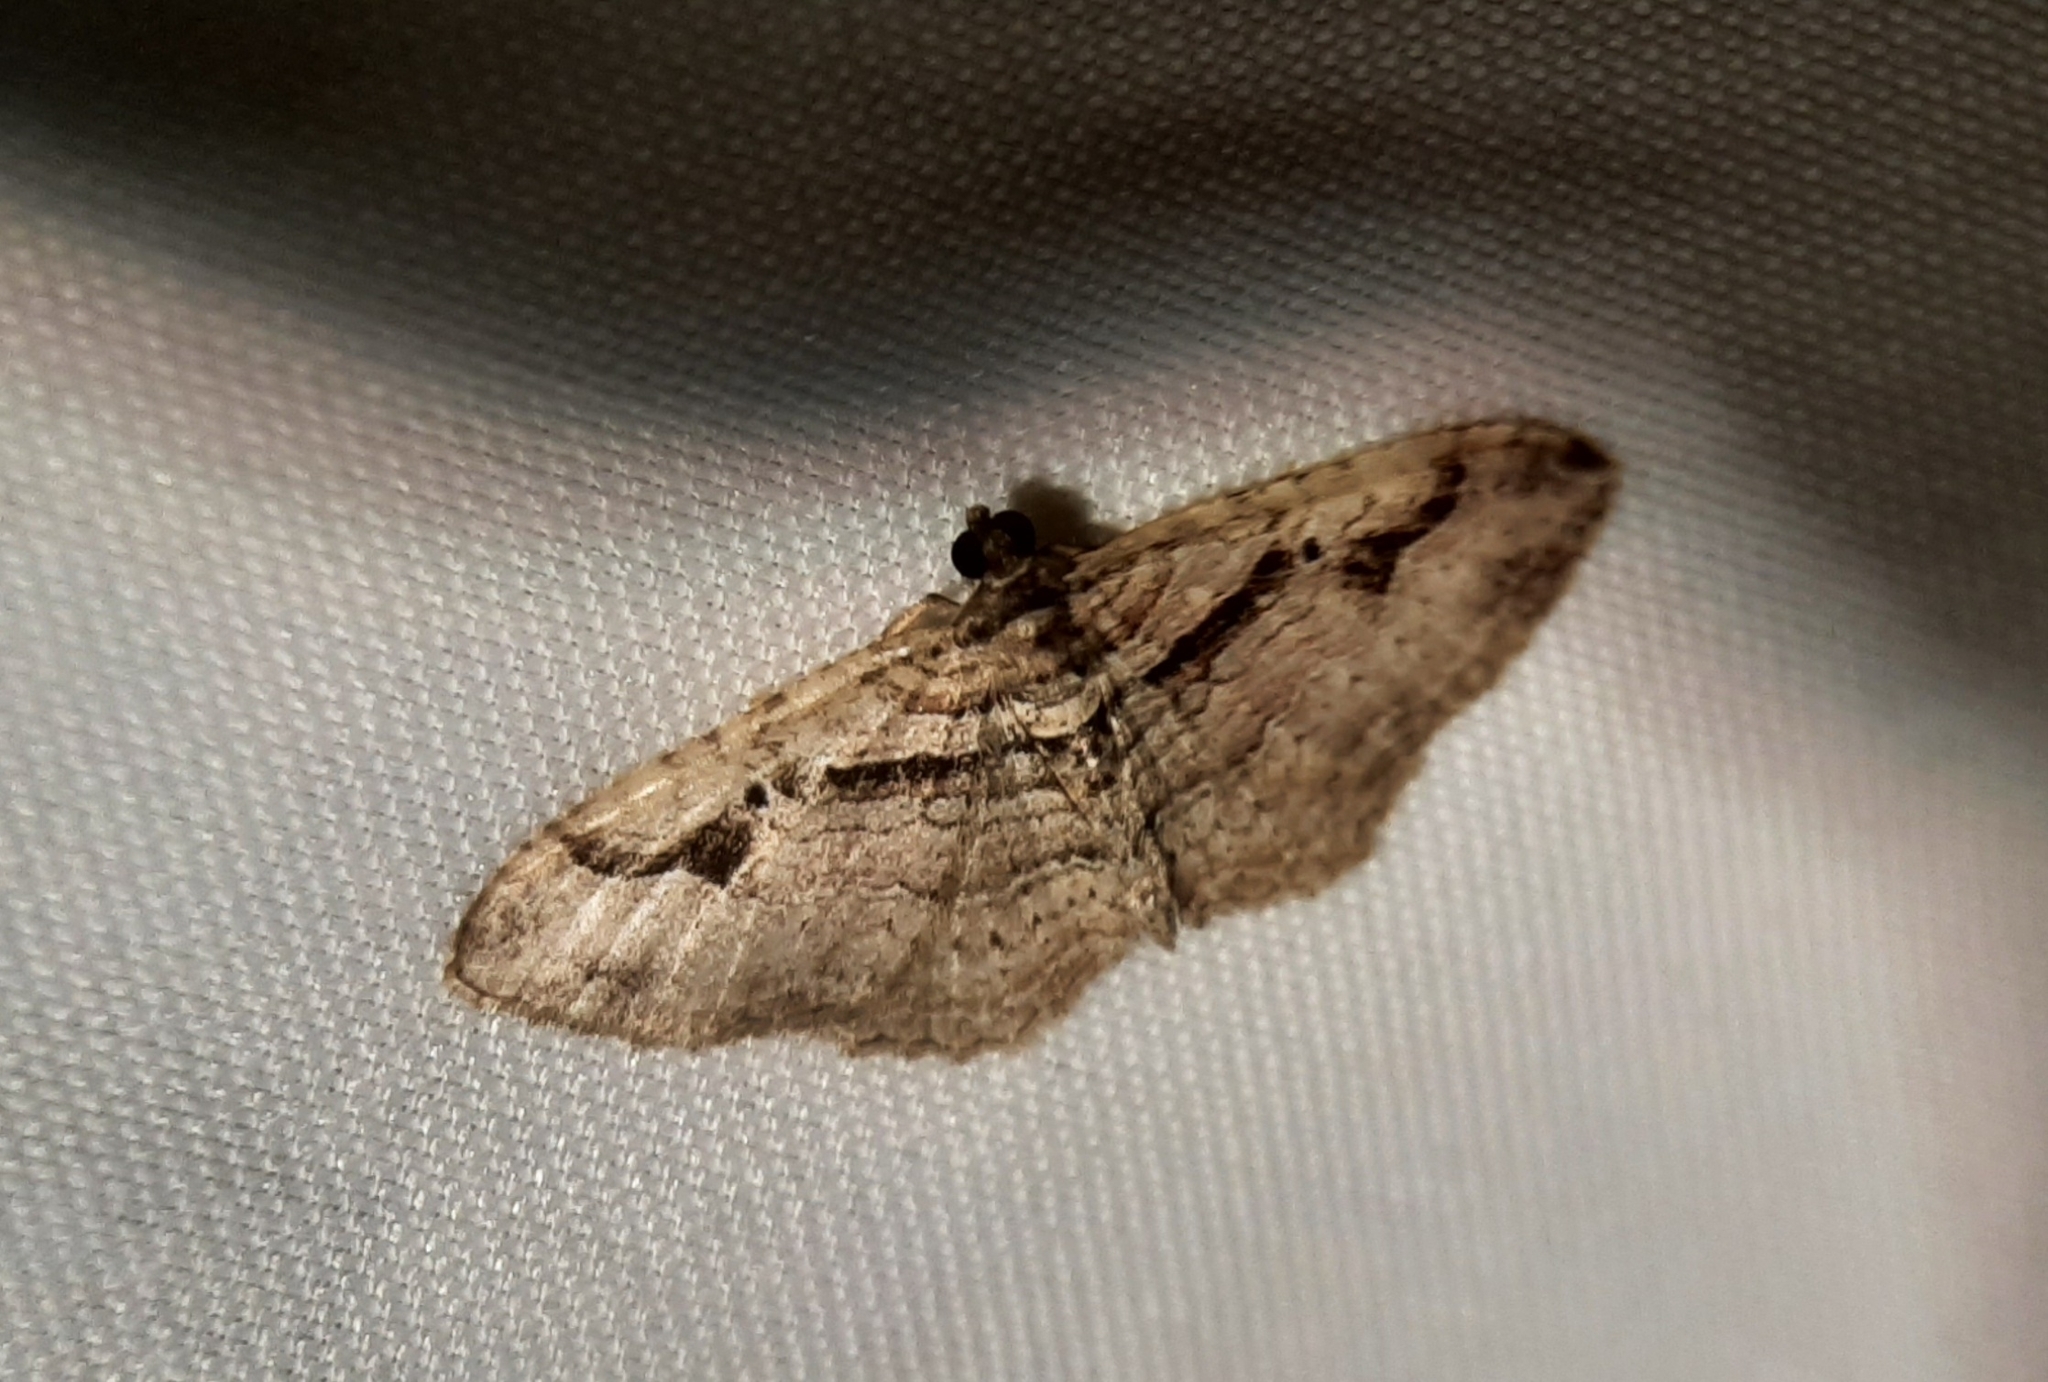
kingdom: Animalia
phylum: Arthropoda
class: Insecta
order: Lepidoptera
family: Geometridae
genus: Costaconvexa
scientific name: Costaconvexa centrostrigaria
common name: Bent-line carpet
